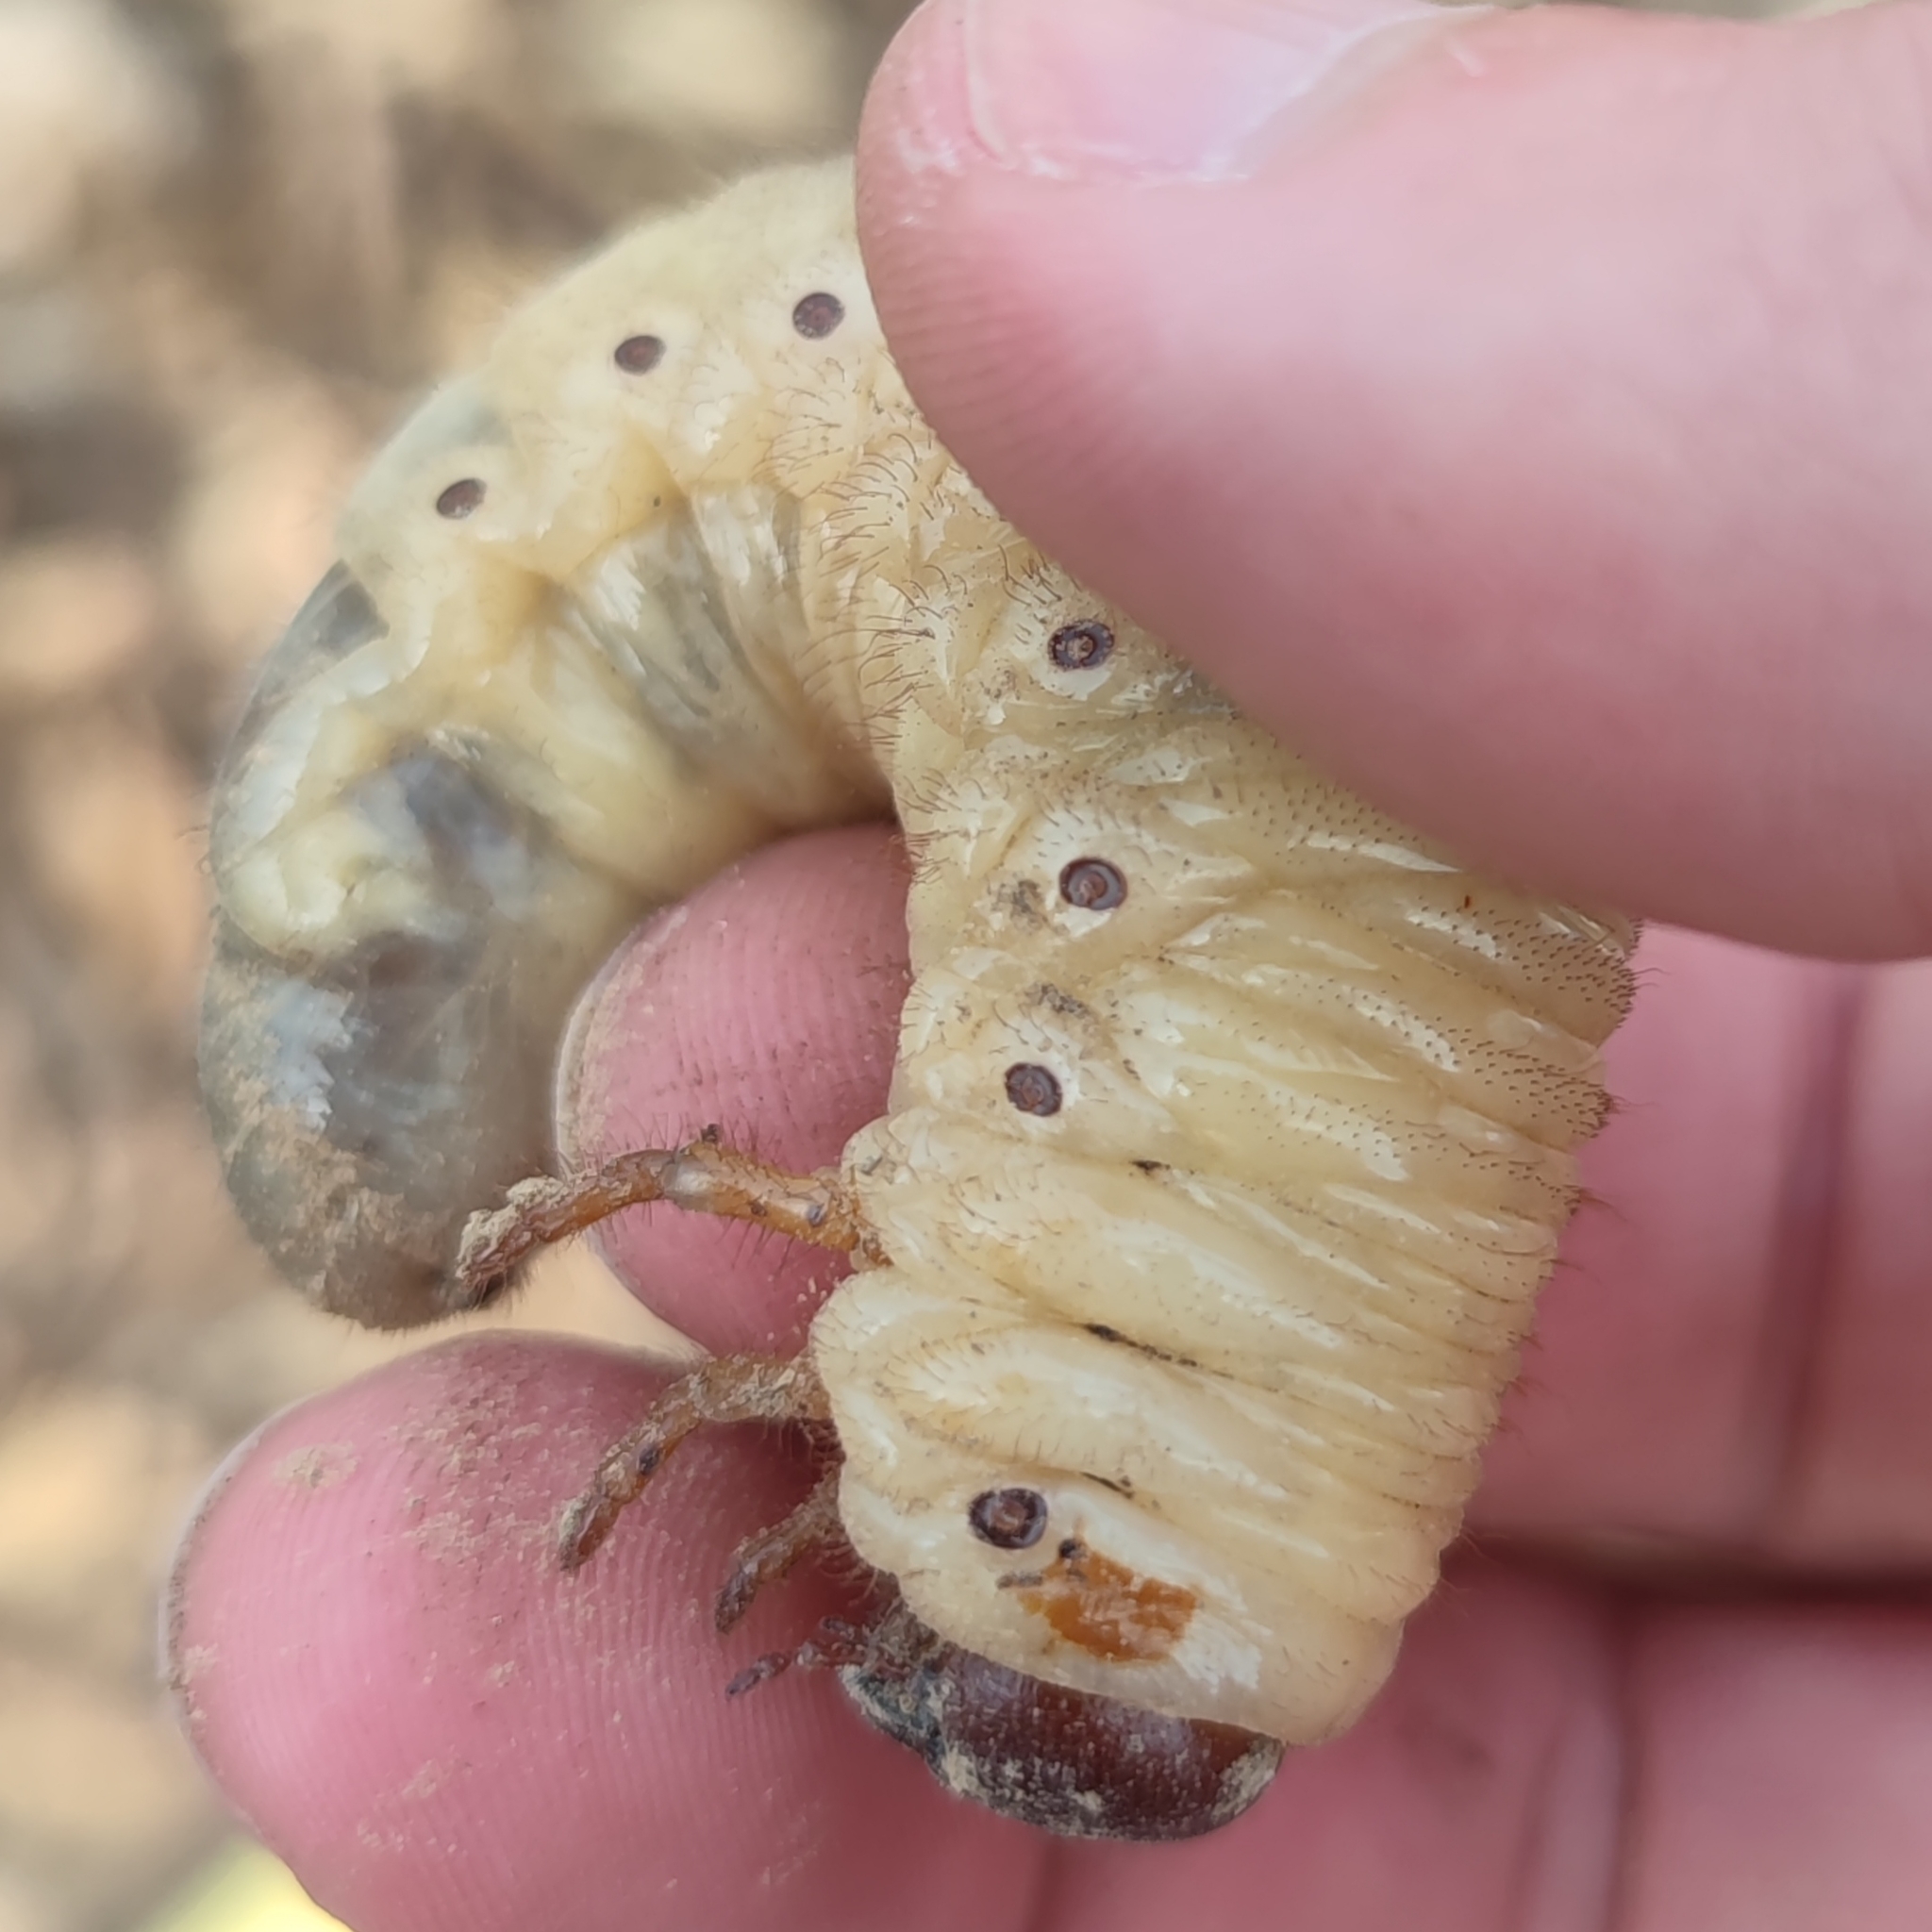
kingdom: Animalia
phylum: Arthropoda
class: Insecta
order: Coleoptera
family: Scarabaeidae
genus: Oryctes
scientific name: Oryctes nasicornis
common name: European rhinoceros beetle
